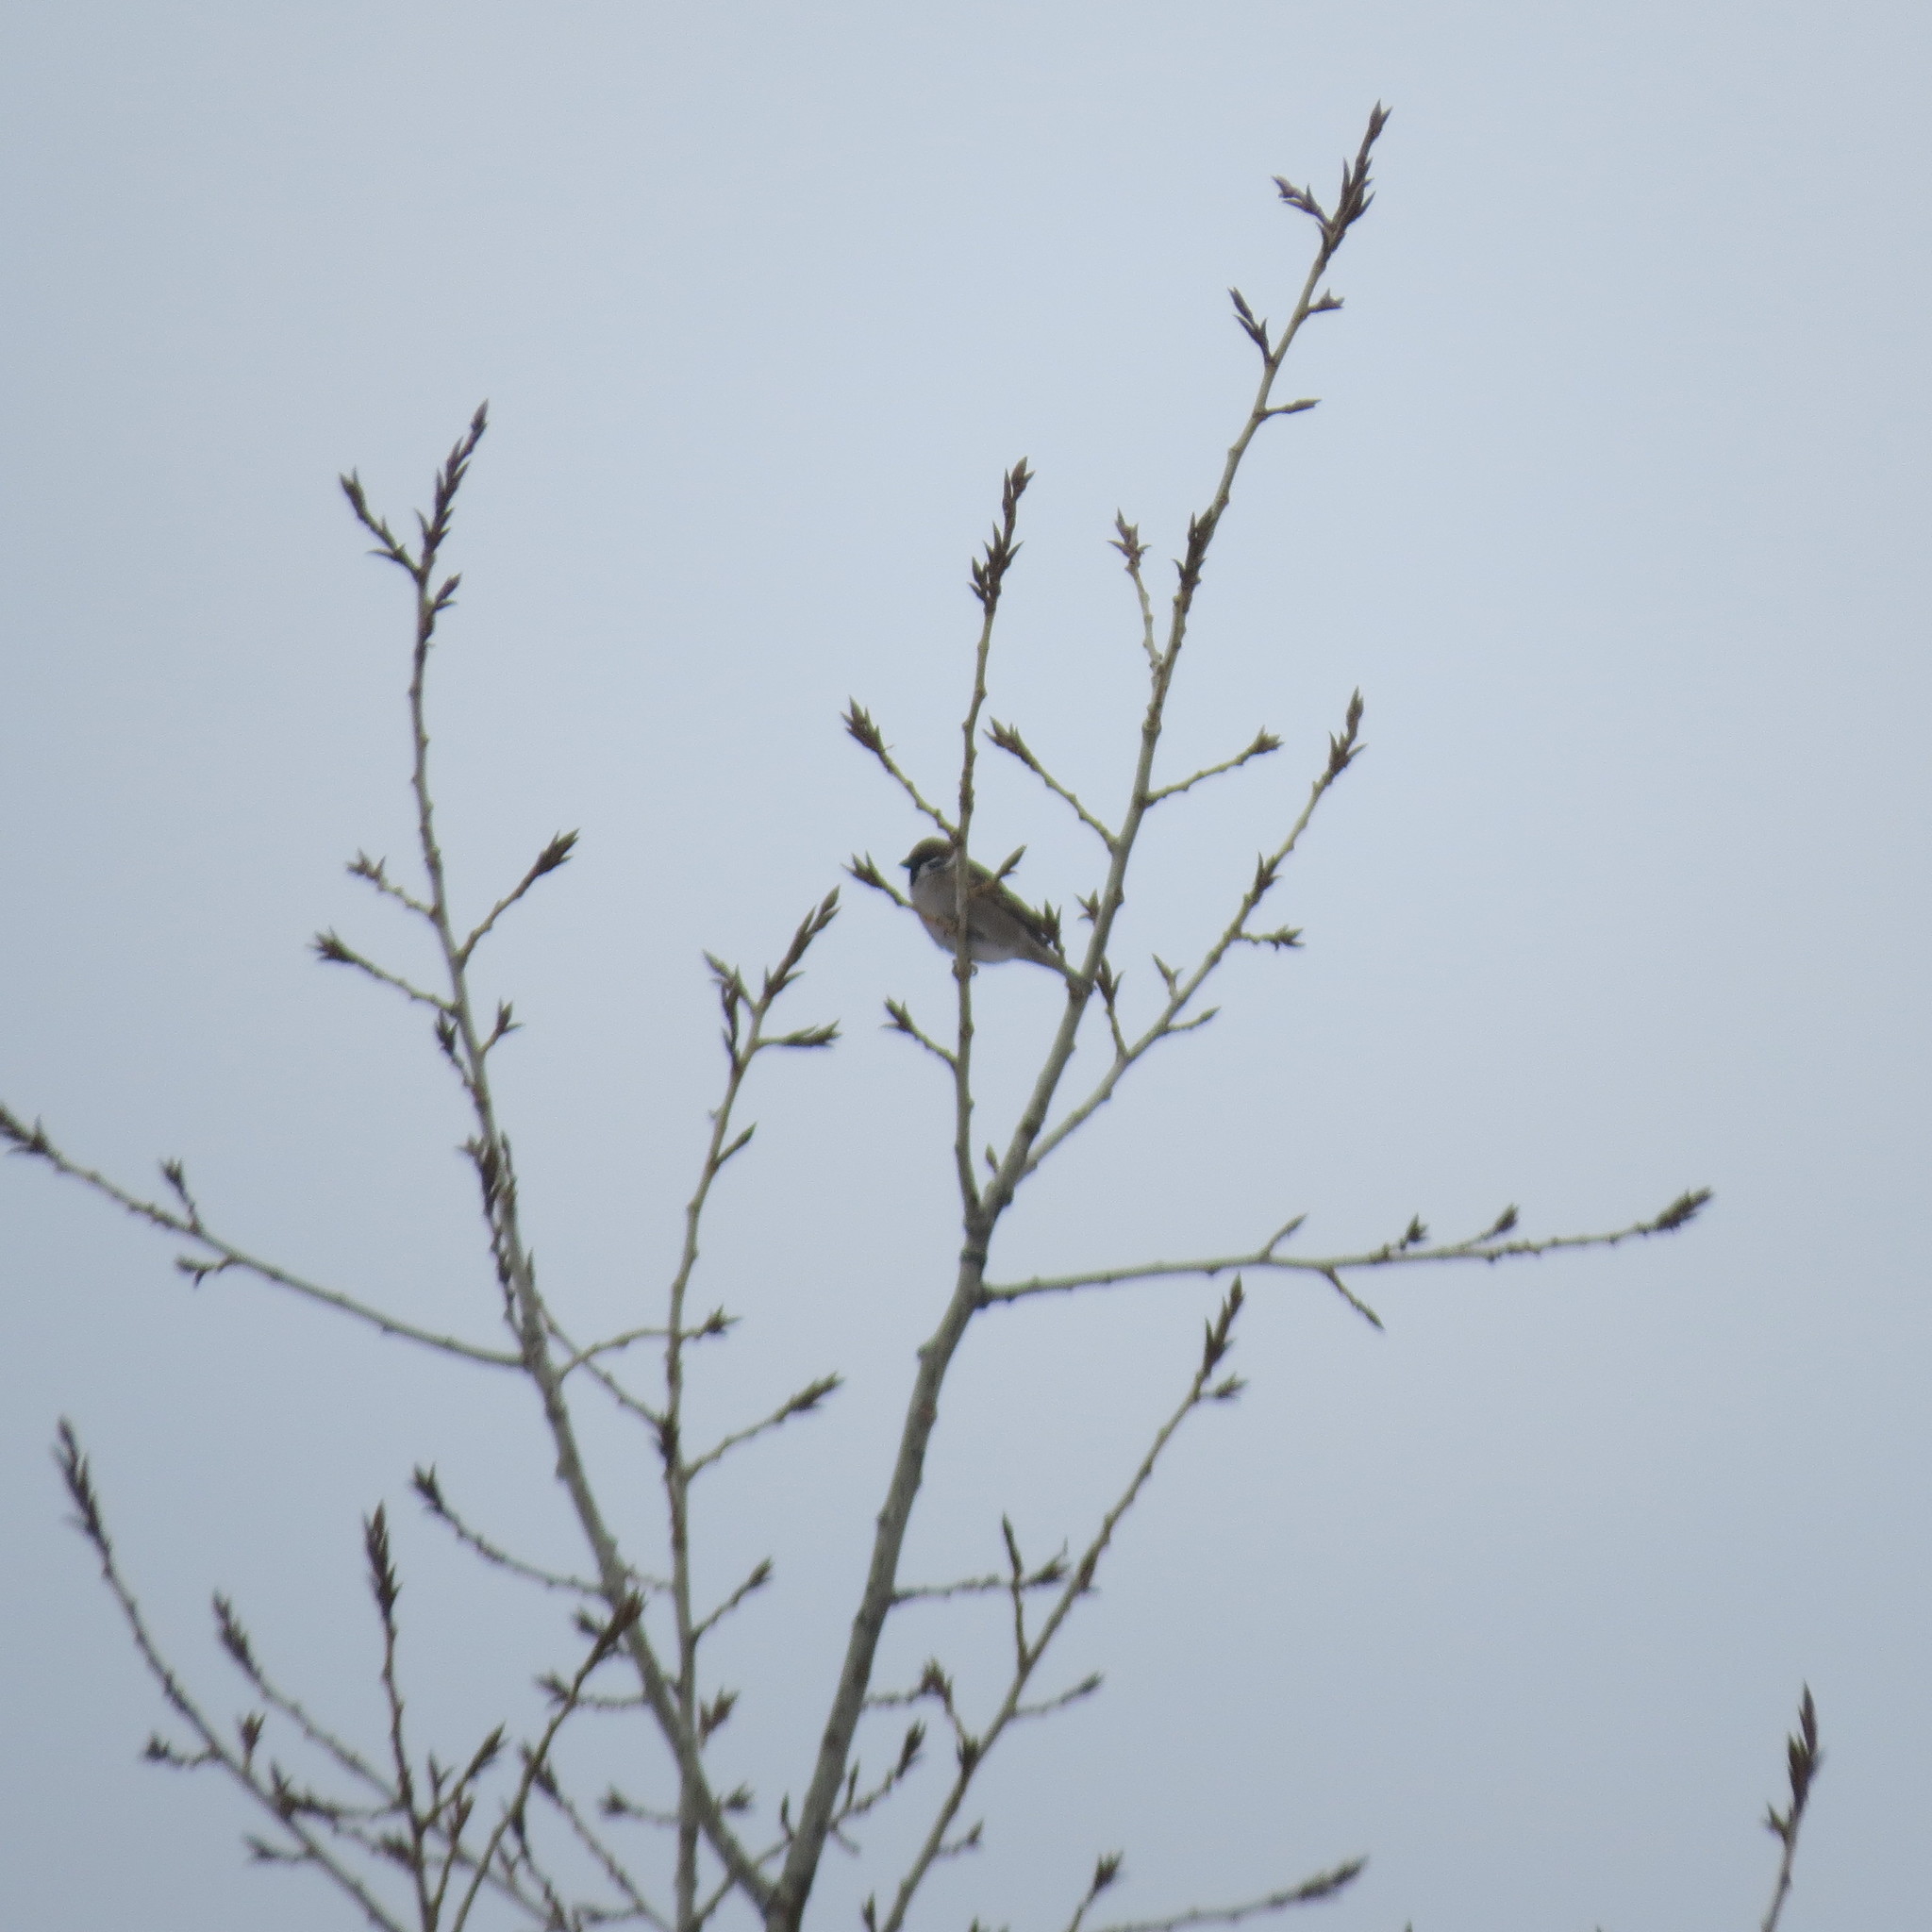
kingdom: Animalia
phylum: Chordata
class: Aves
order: Passeriformes
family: Passeridae
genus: Passer
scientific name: Passer montanus
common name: Eurasian tree sparrow
